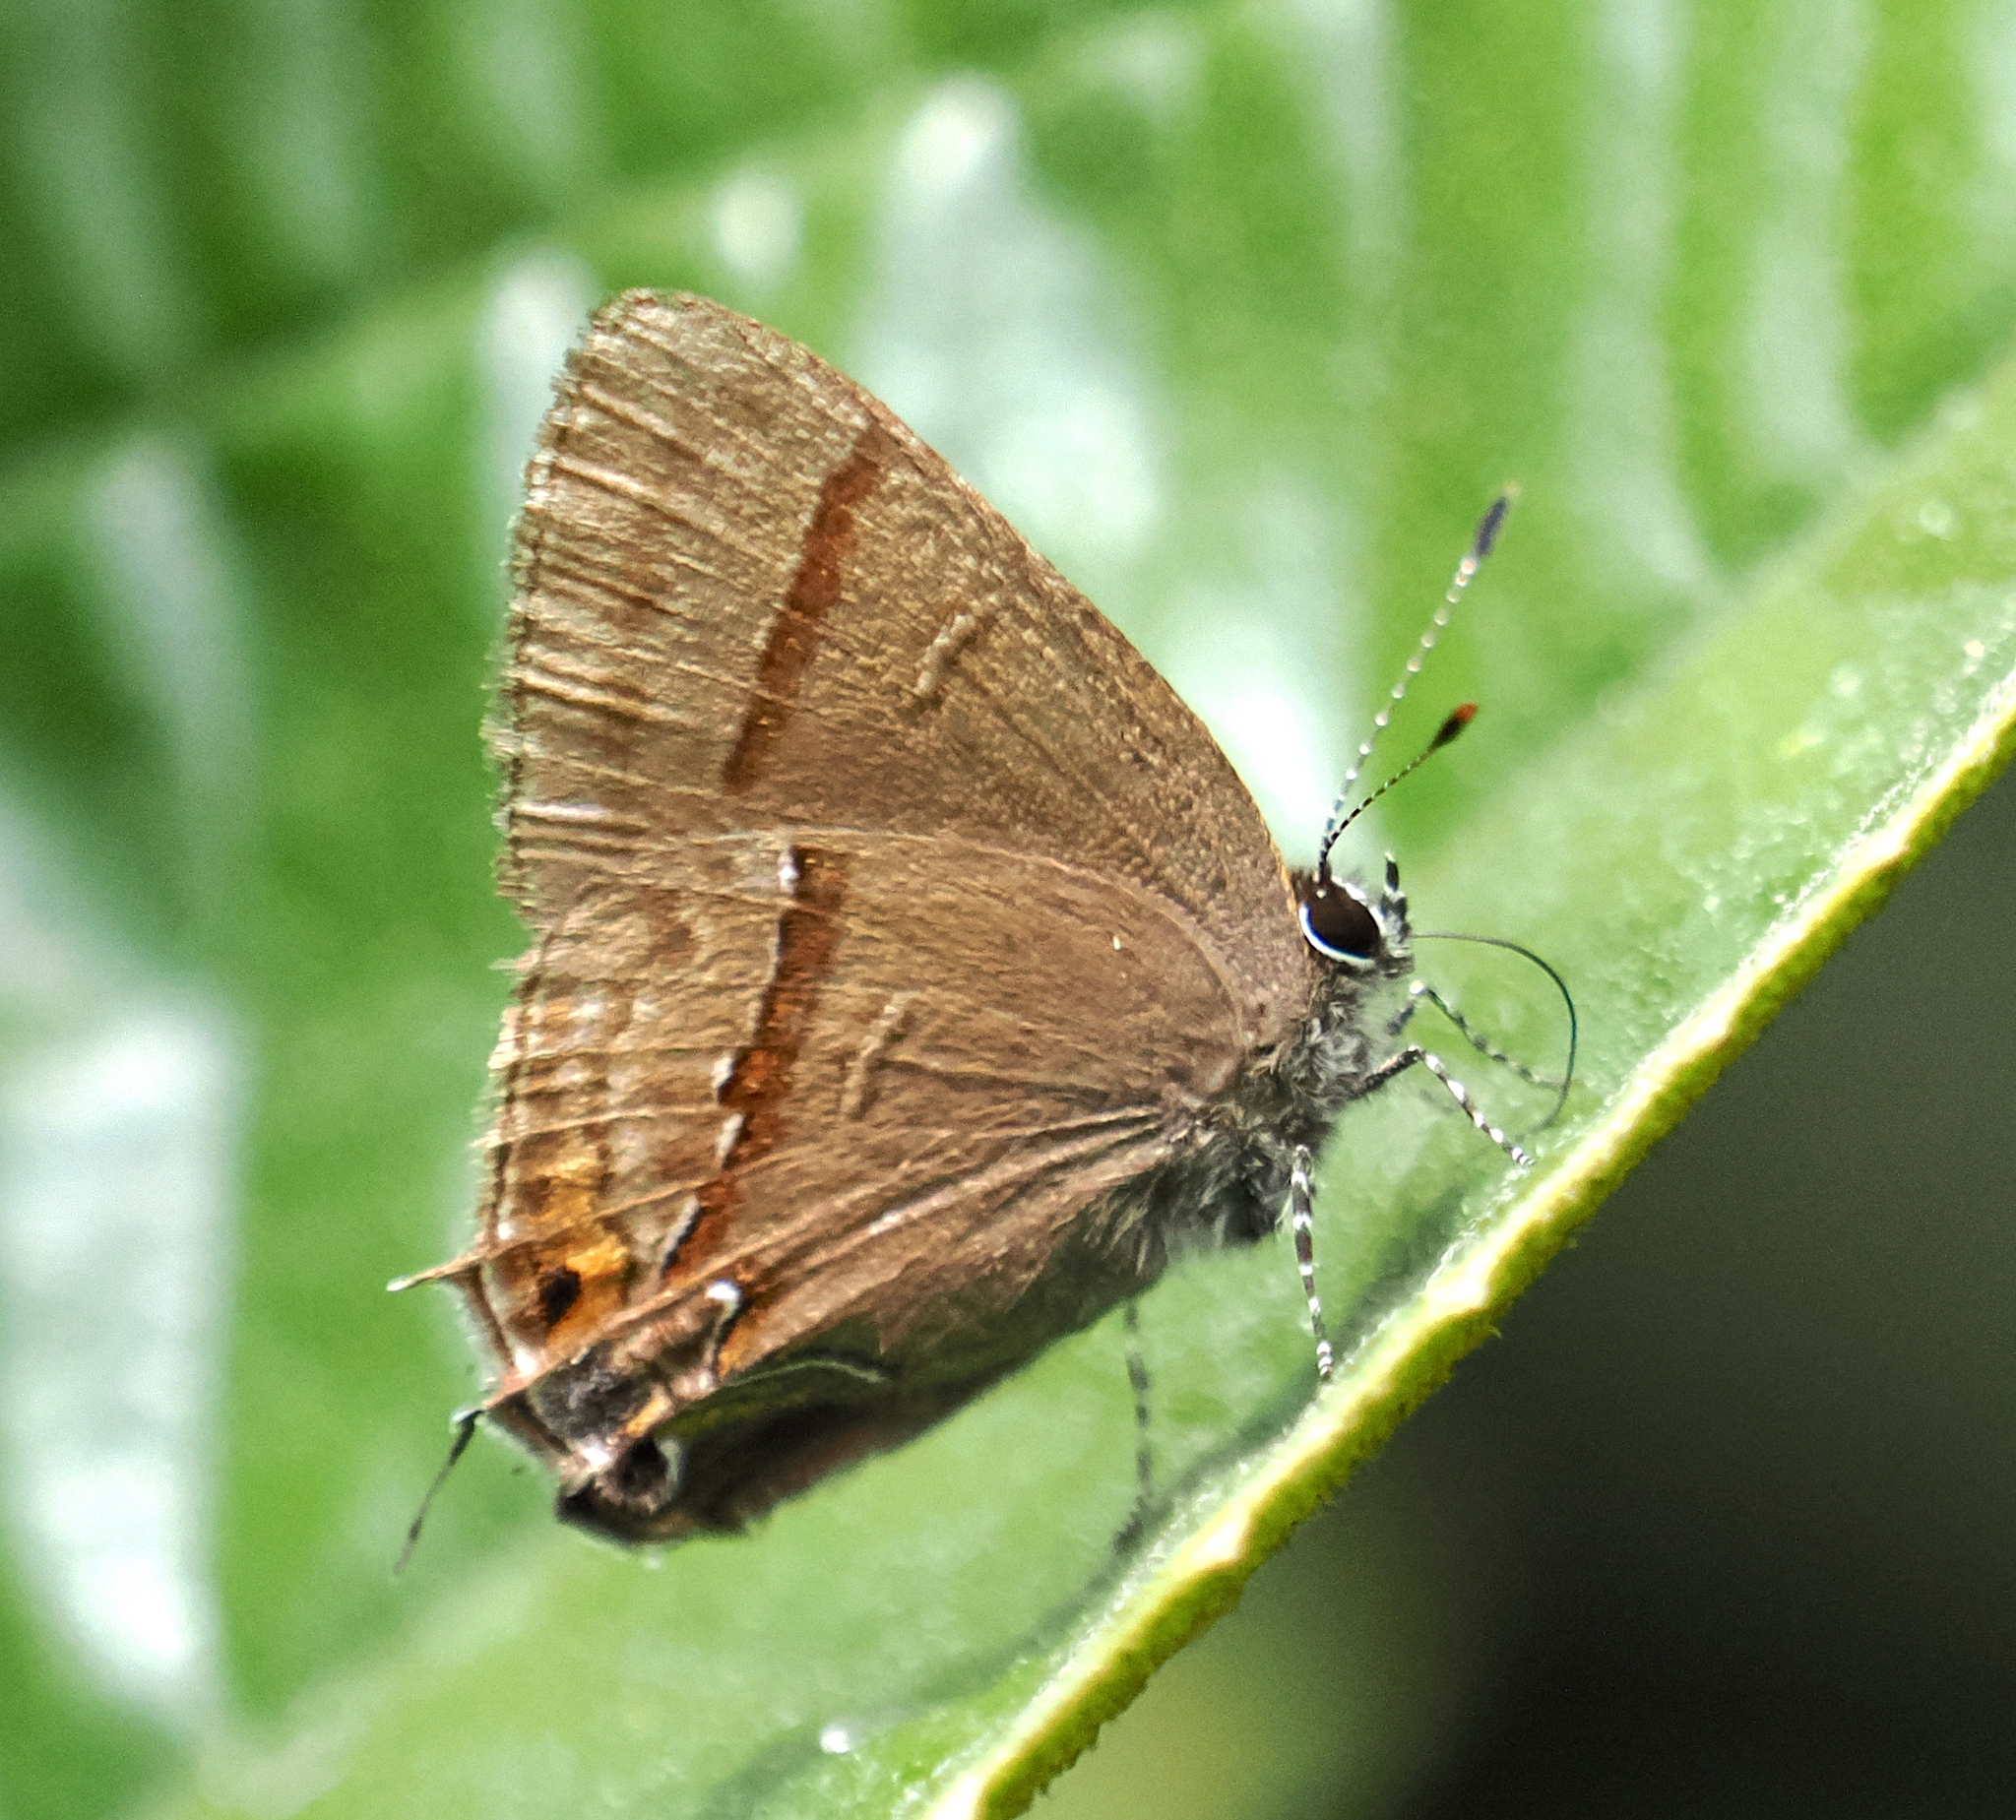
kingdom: Animalia
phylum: Arthropoda
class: Insecta
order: Lepidoptera
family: Lycaenidae
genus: Electrostrymon
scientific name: Electrostrymon perisus
